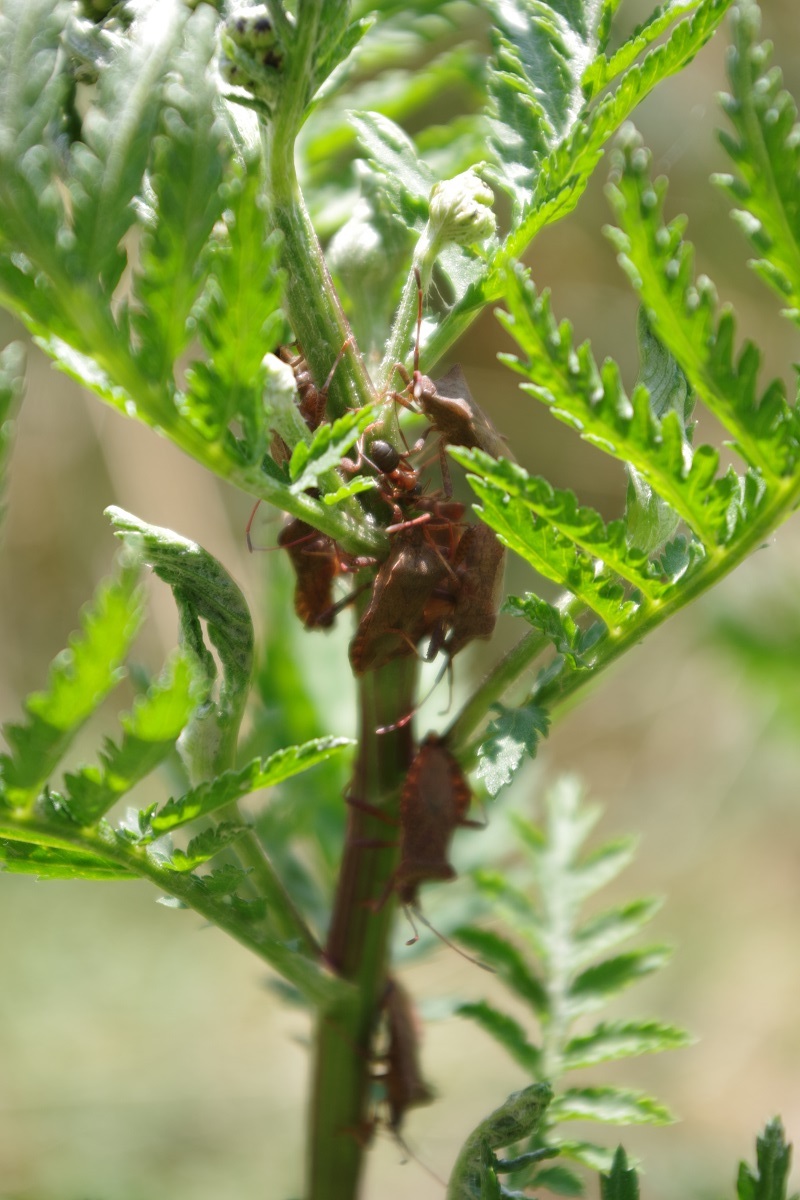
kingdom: Animalia
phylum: Arthropoda
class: Insecta
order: Hemiptera
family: Coreidae
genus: Coreus
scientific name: Coreus marginatus
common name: Dock bug
